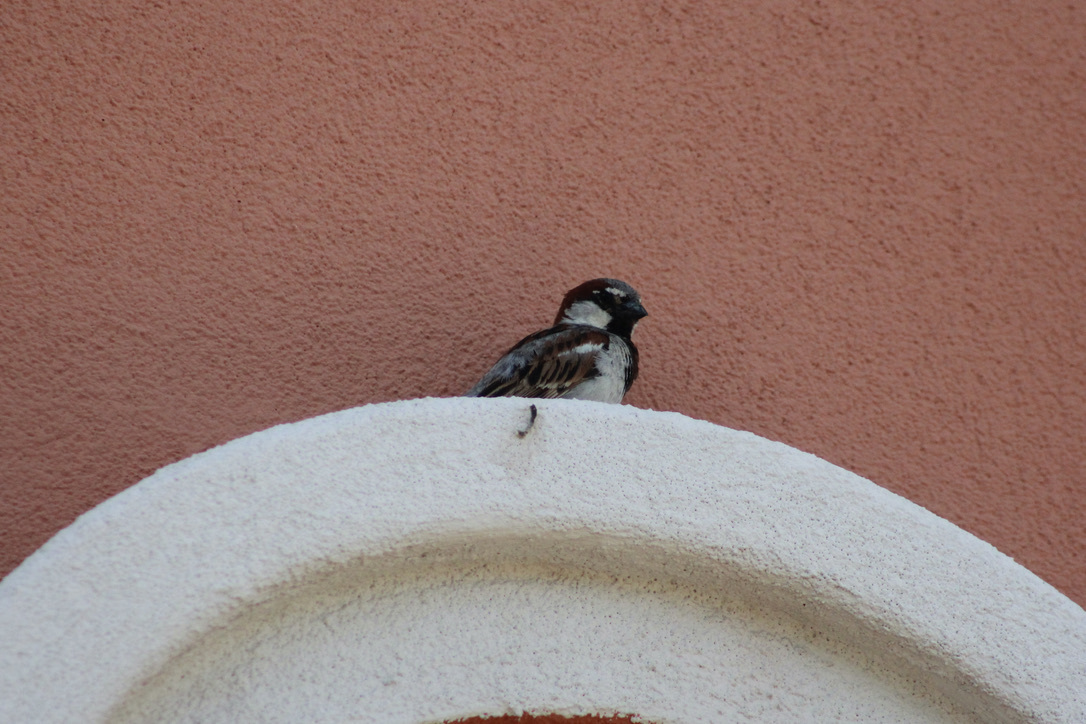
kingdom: Animalia
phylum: Chordata
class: Aves
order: Passeriformes
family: Passeridae
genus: Passer
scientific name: Passer domesticus
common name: House sparrow
